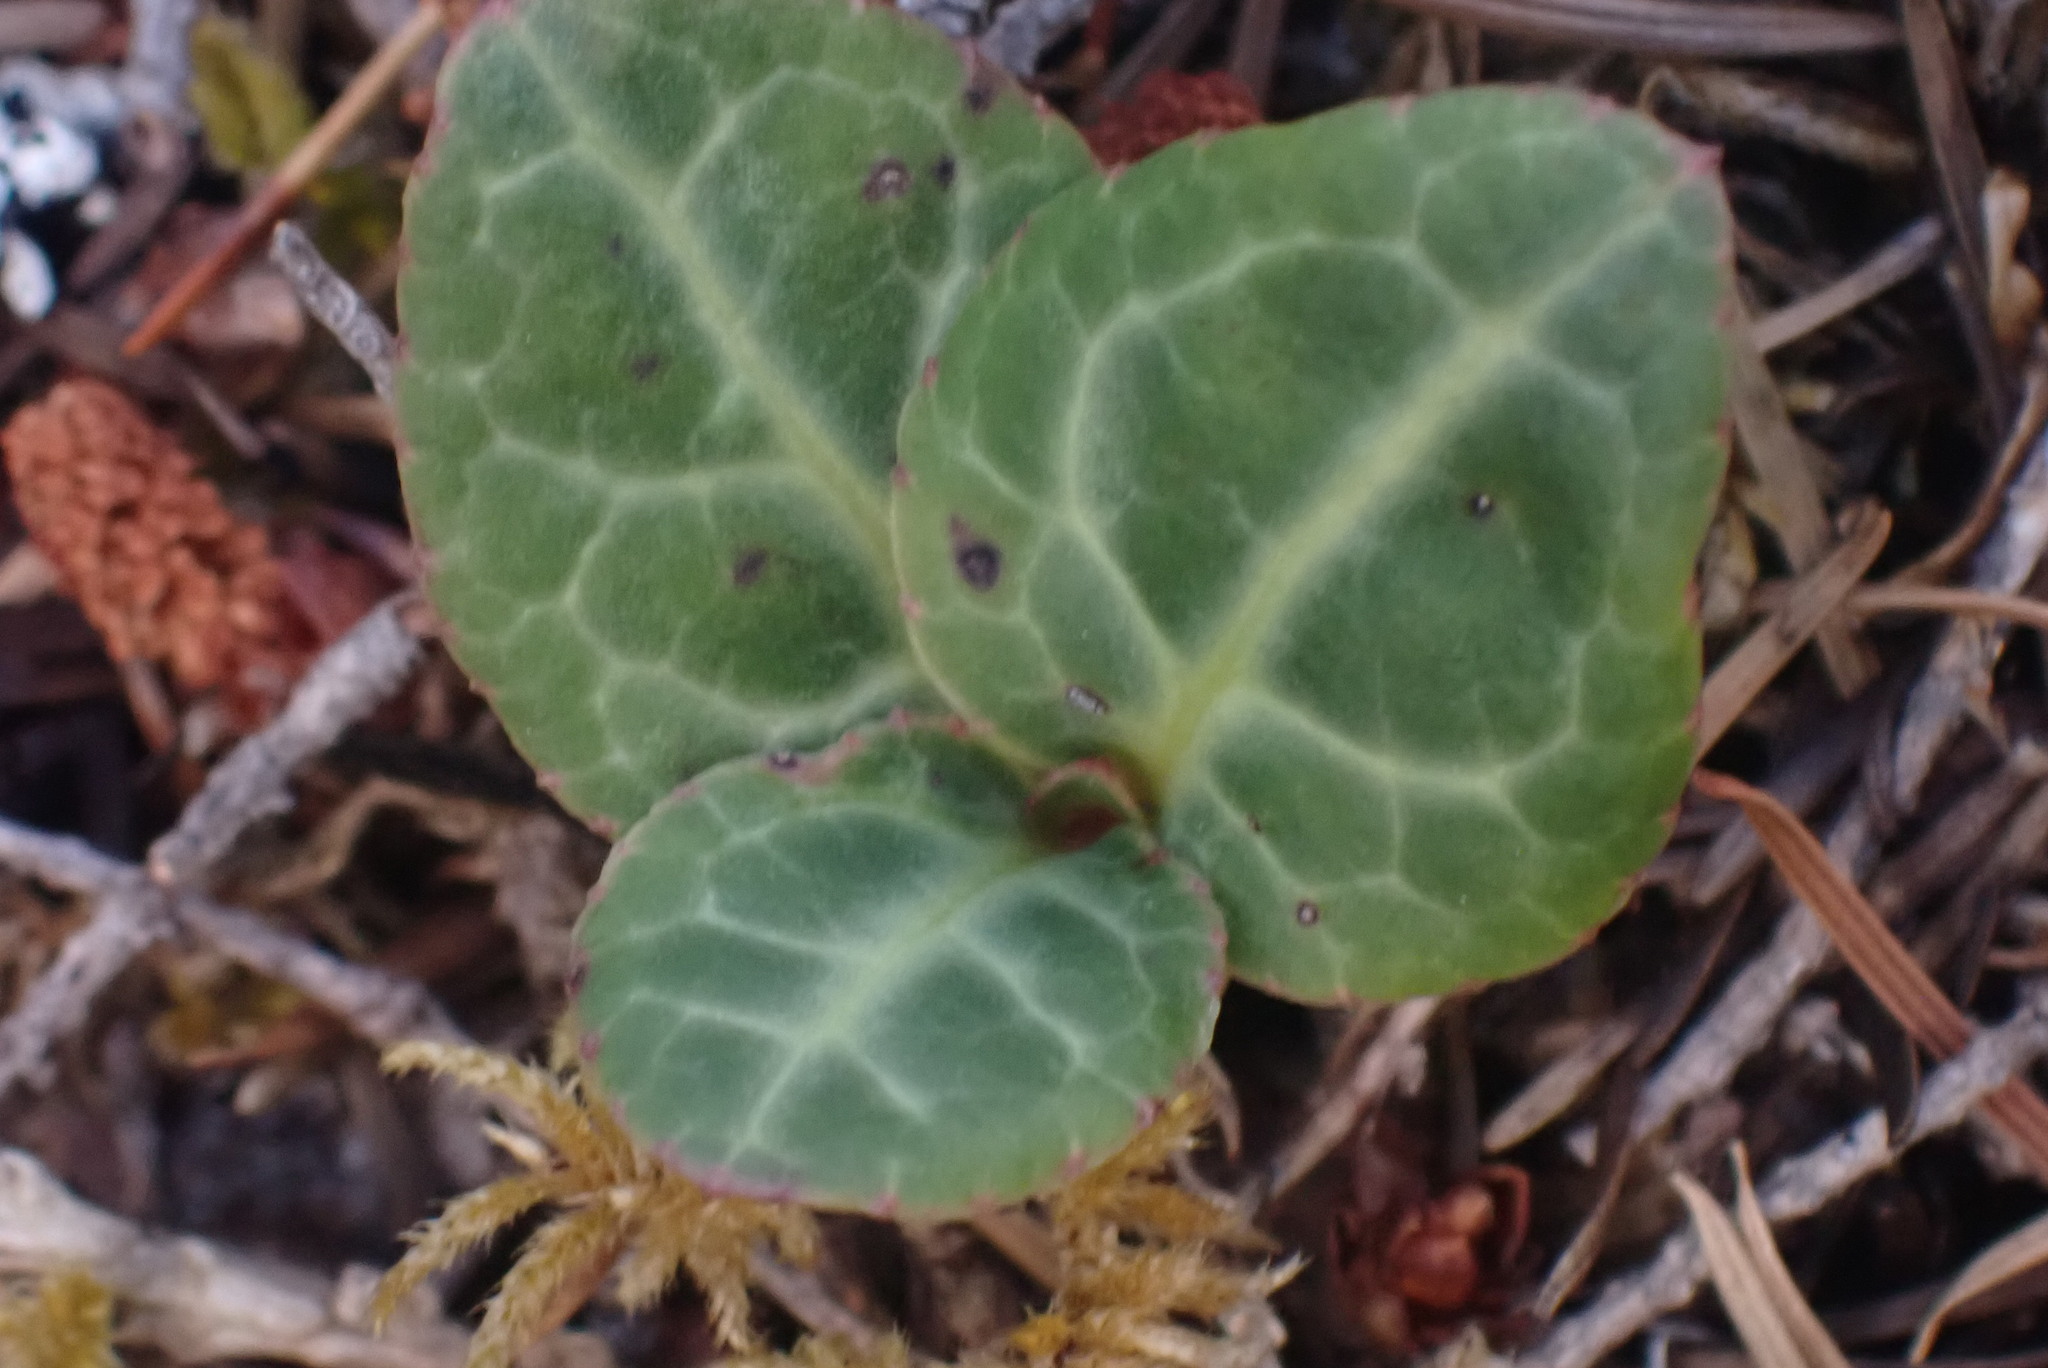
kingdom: Plantae
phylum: Tracheophyta
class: Magnoliopsida
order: Ericales
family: Ericaceae
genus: Pyrola
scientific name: Pyrola picta
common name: White-vein wintergreen
